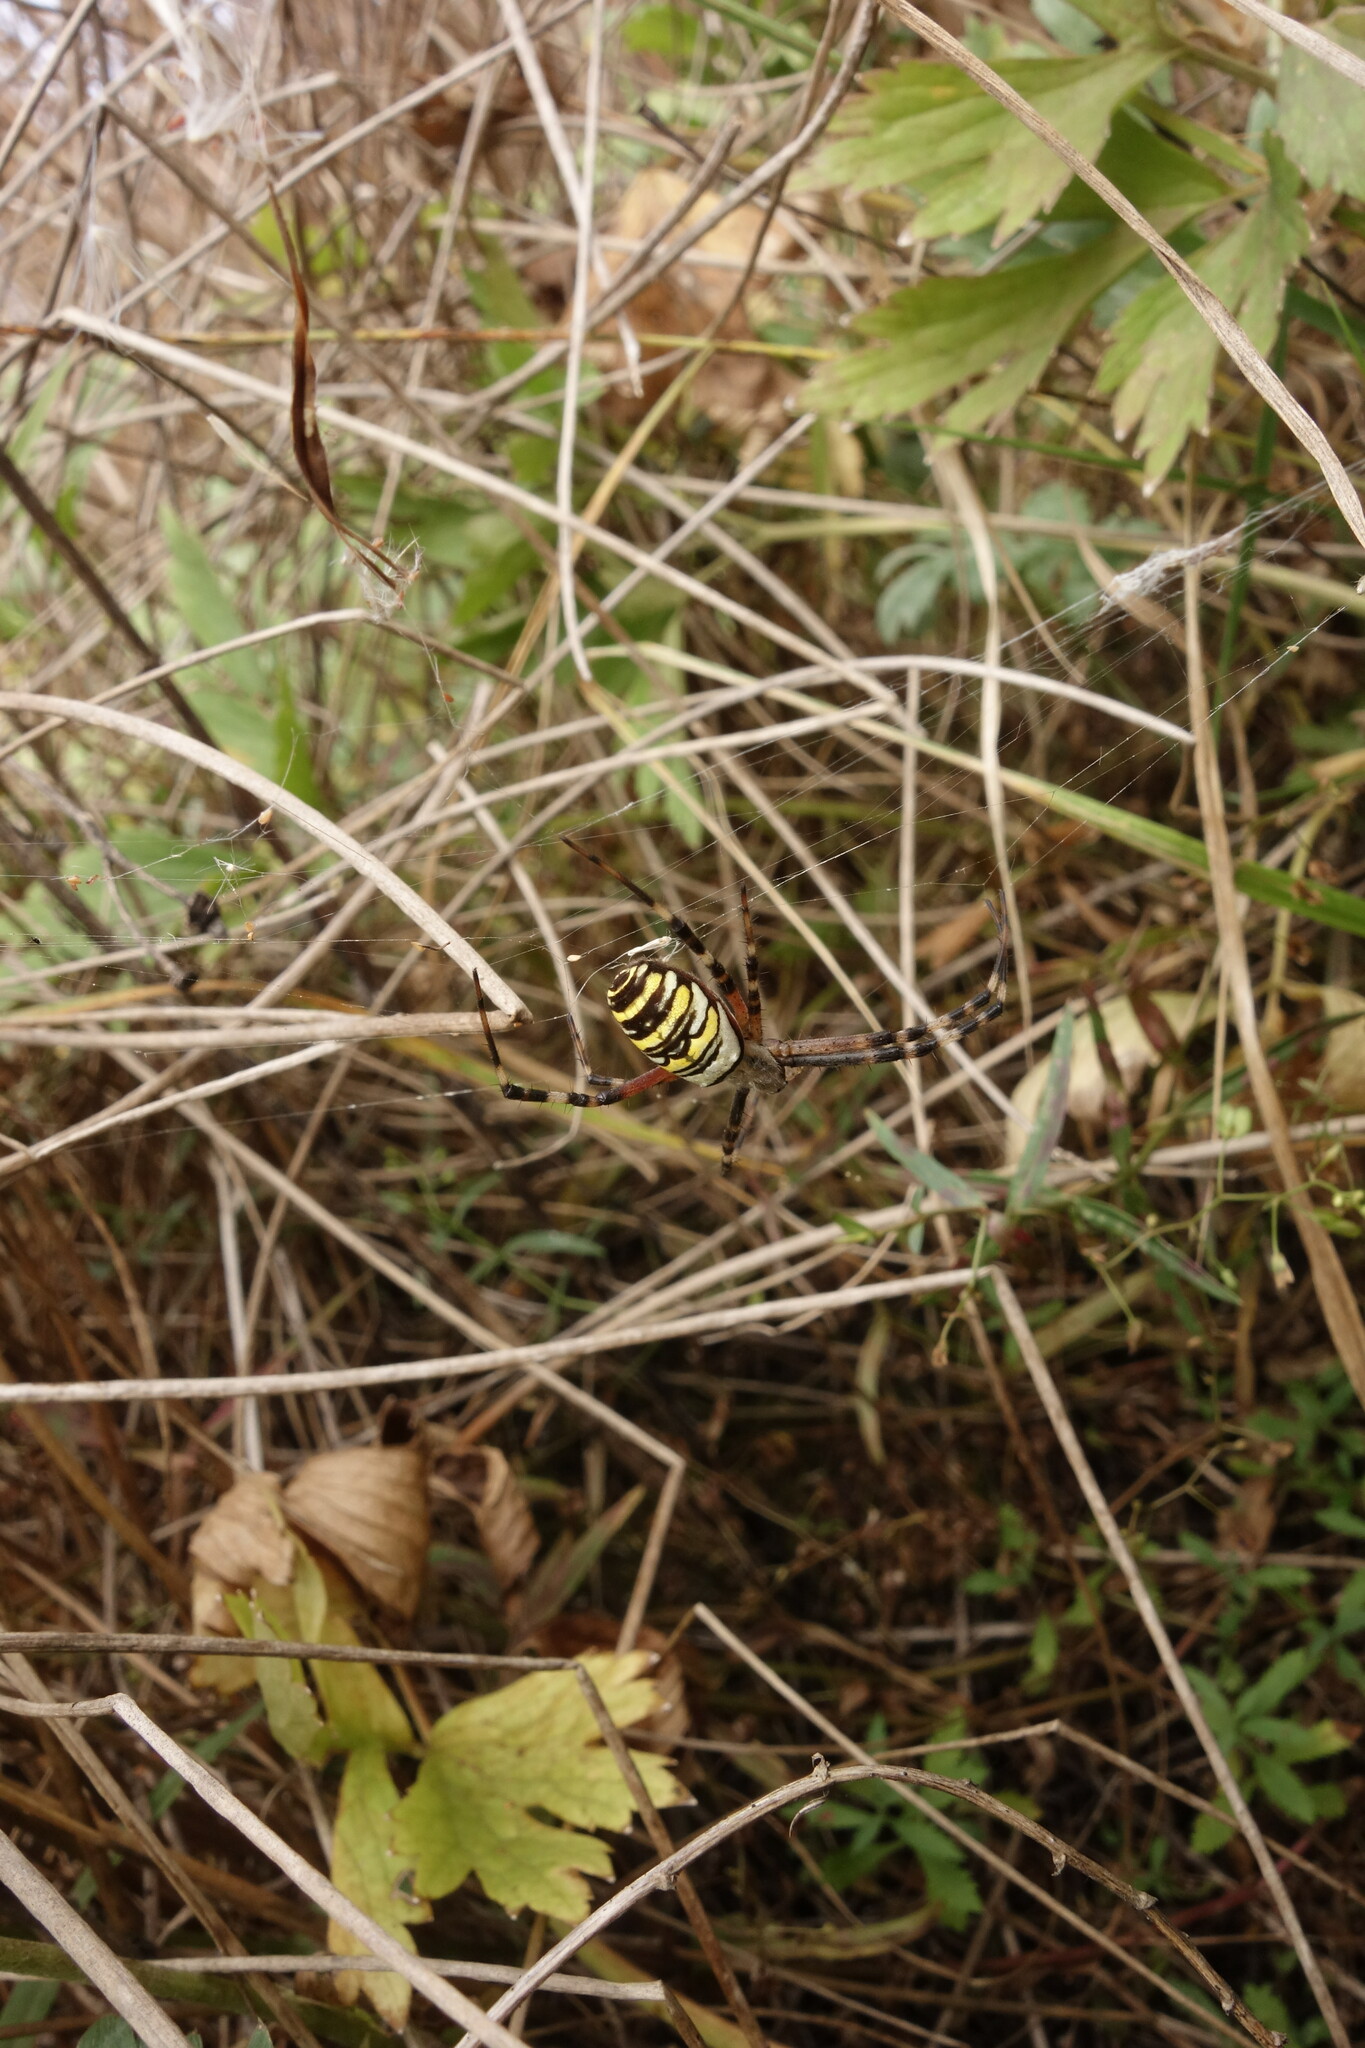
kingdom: Animalia
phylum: Arthropoda
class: Arachnida
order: Araneae
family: Araneidae
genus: Argiope
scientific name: Argiope bruennichi
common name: Wasp spider
